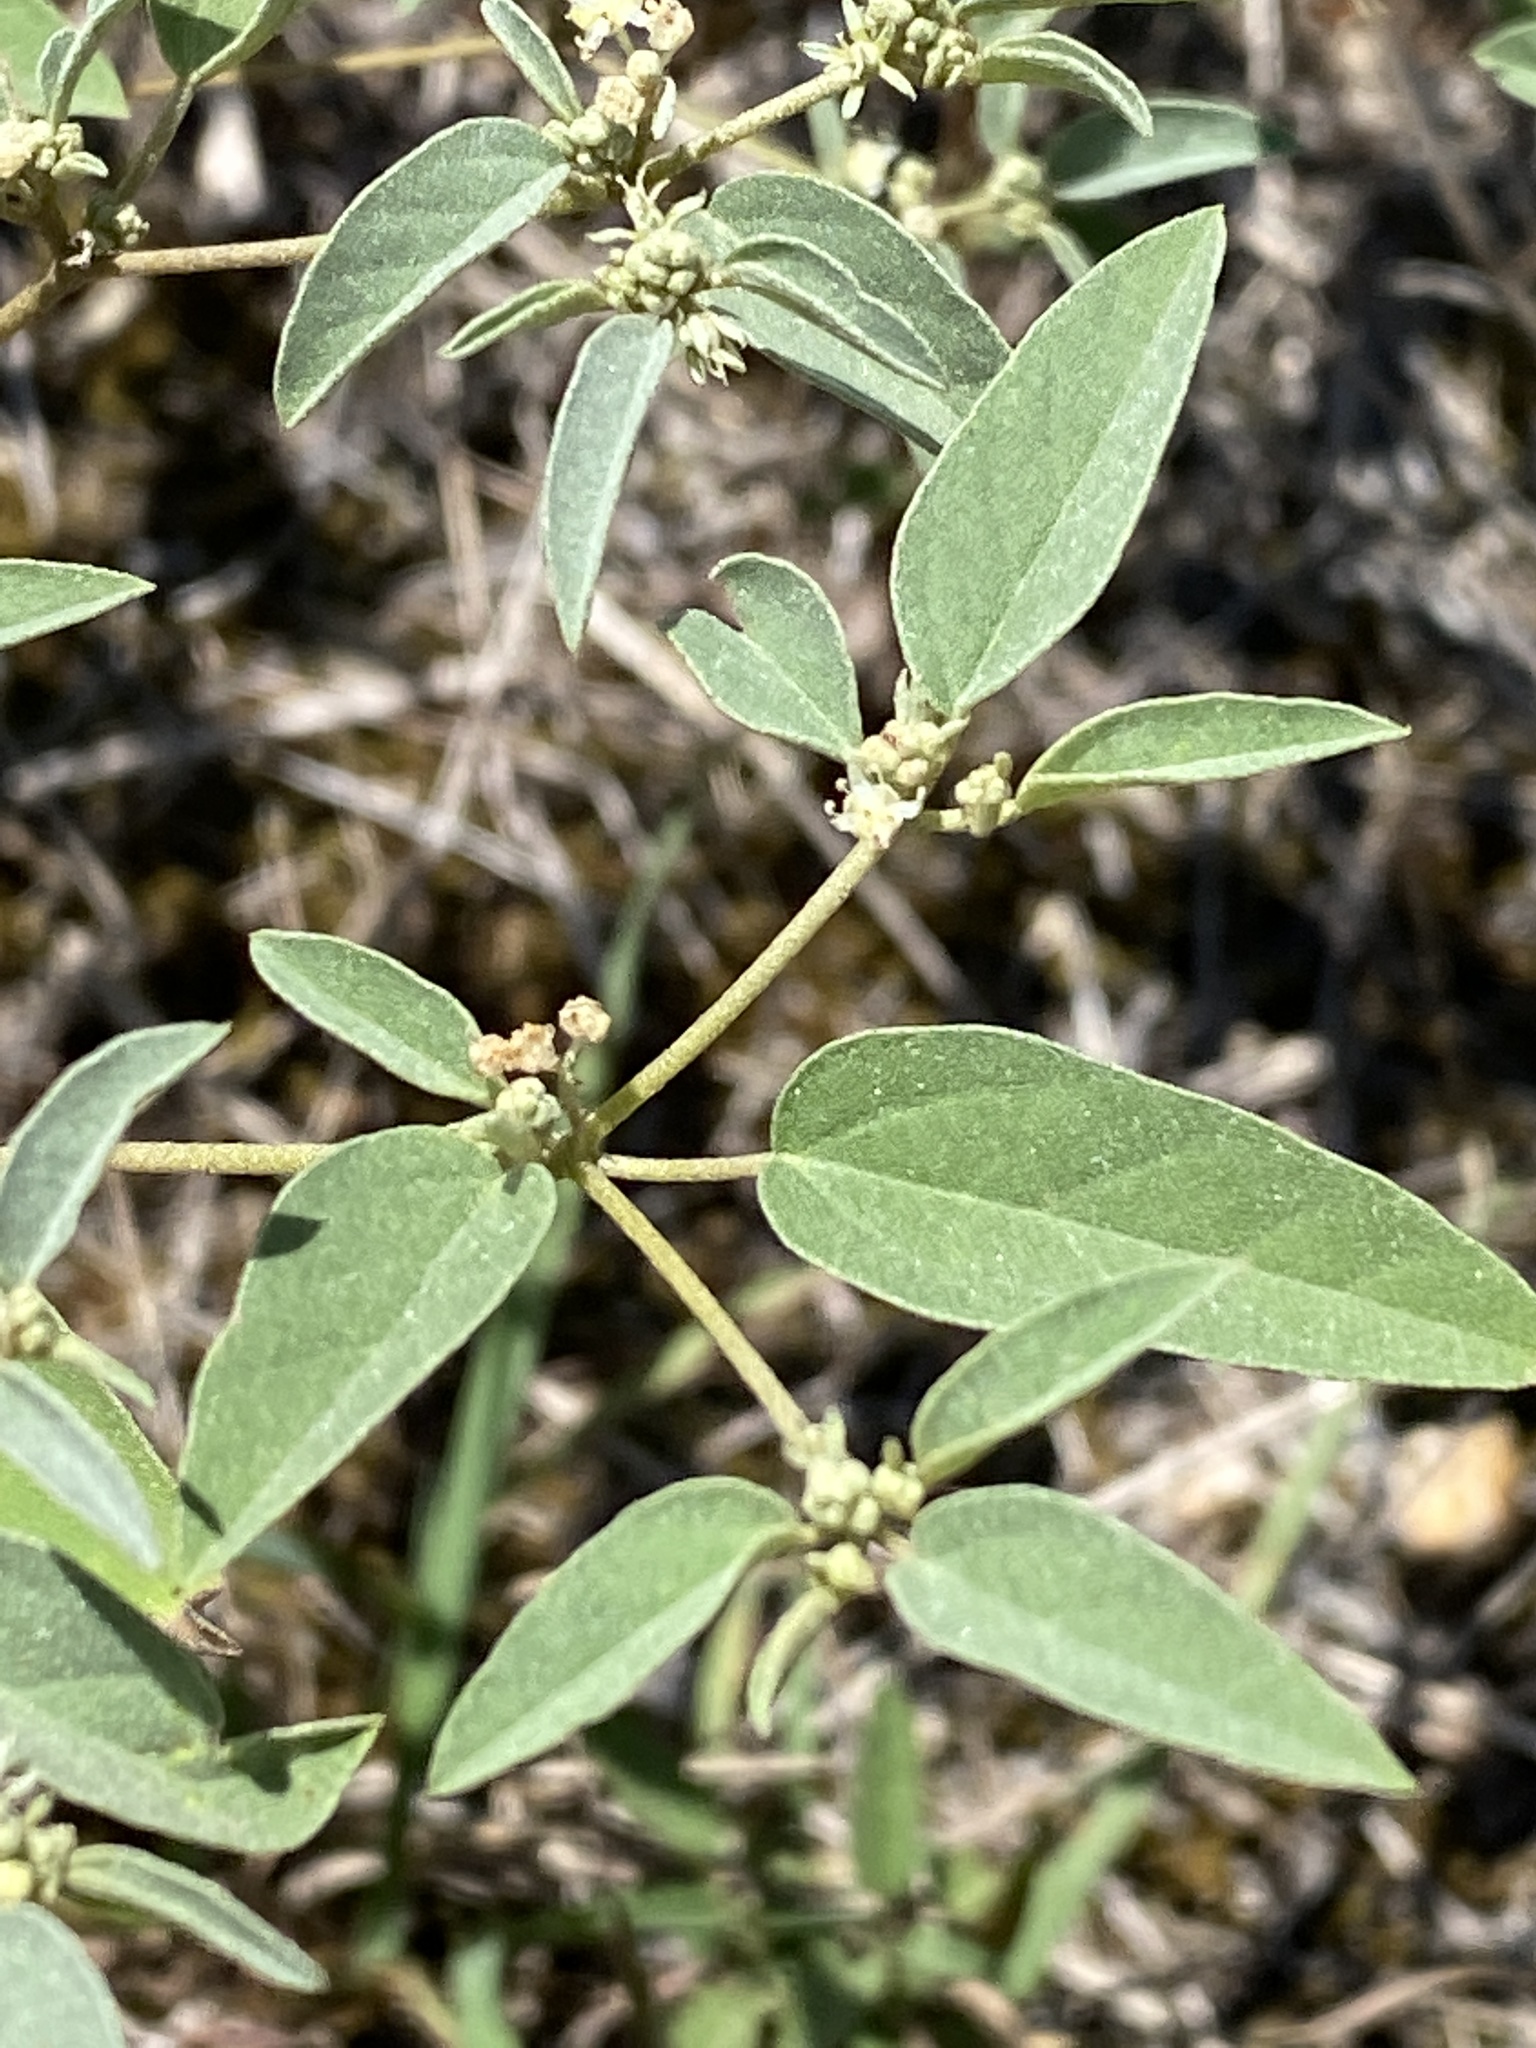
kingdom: Plantae
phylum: Tracheophyta
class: Magnoliopsida
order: Malpighiales
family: Euphorbiaceae
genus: Croton
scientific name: Croton monanthogynus
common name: One-seed croton
